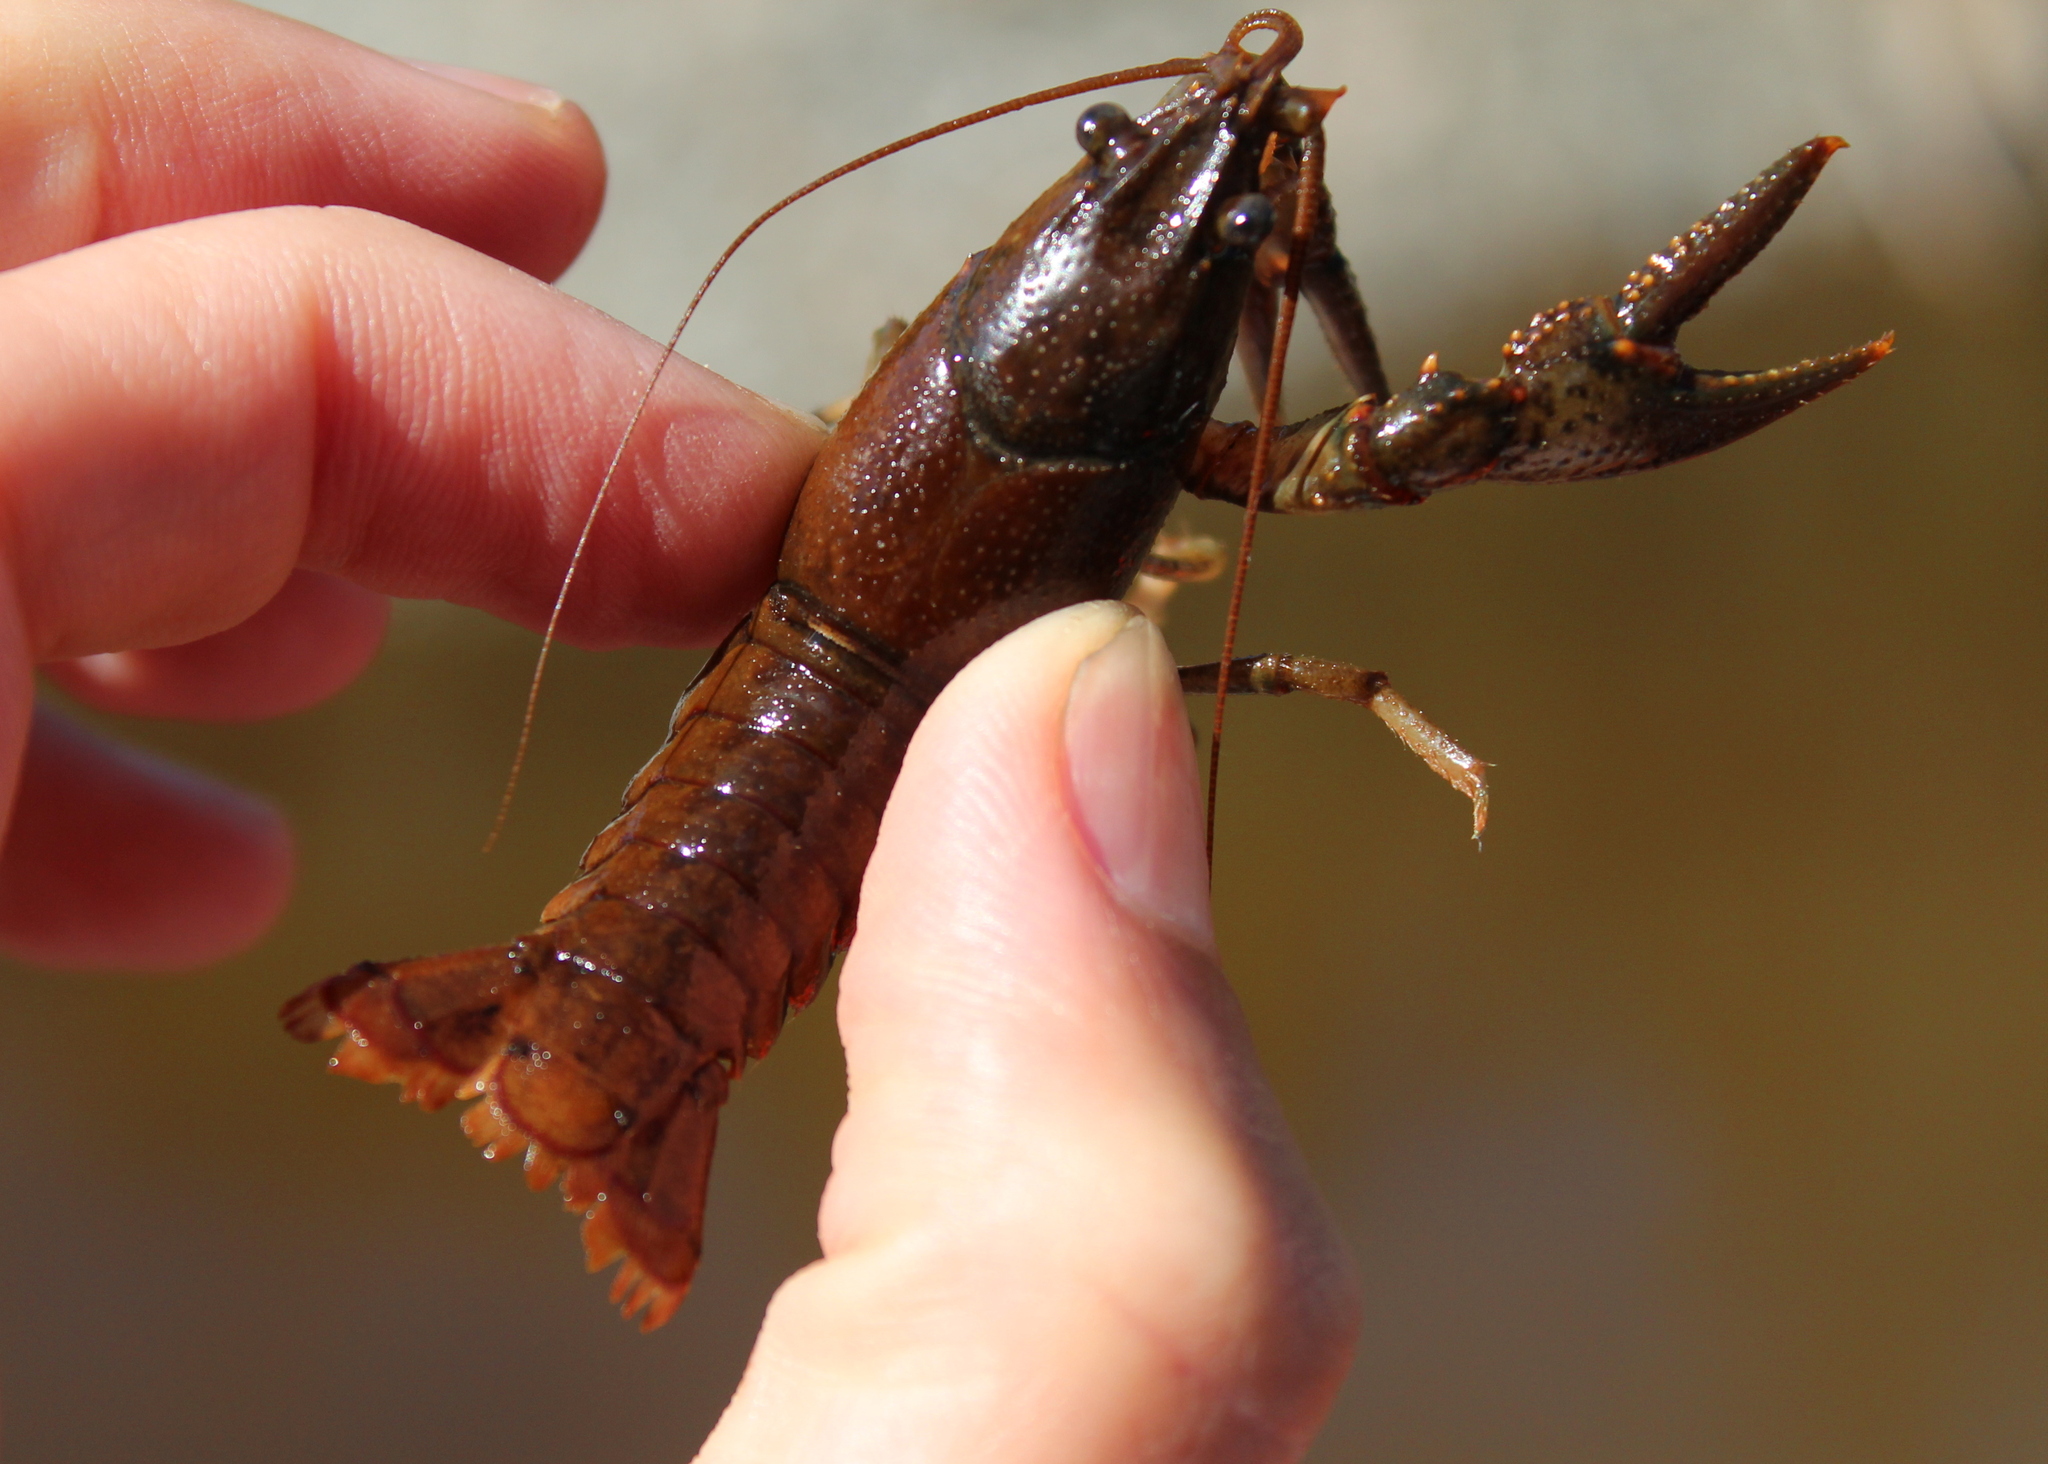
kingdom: Animalia
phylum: Arthropoda
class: Malacostraca
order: Decapoda
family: Cambaridae
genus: Faxonius
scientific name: Faxonius virilis
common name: Virile crayfish
